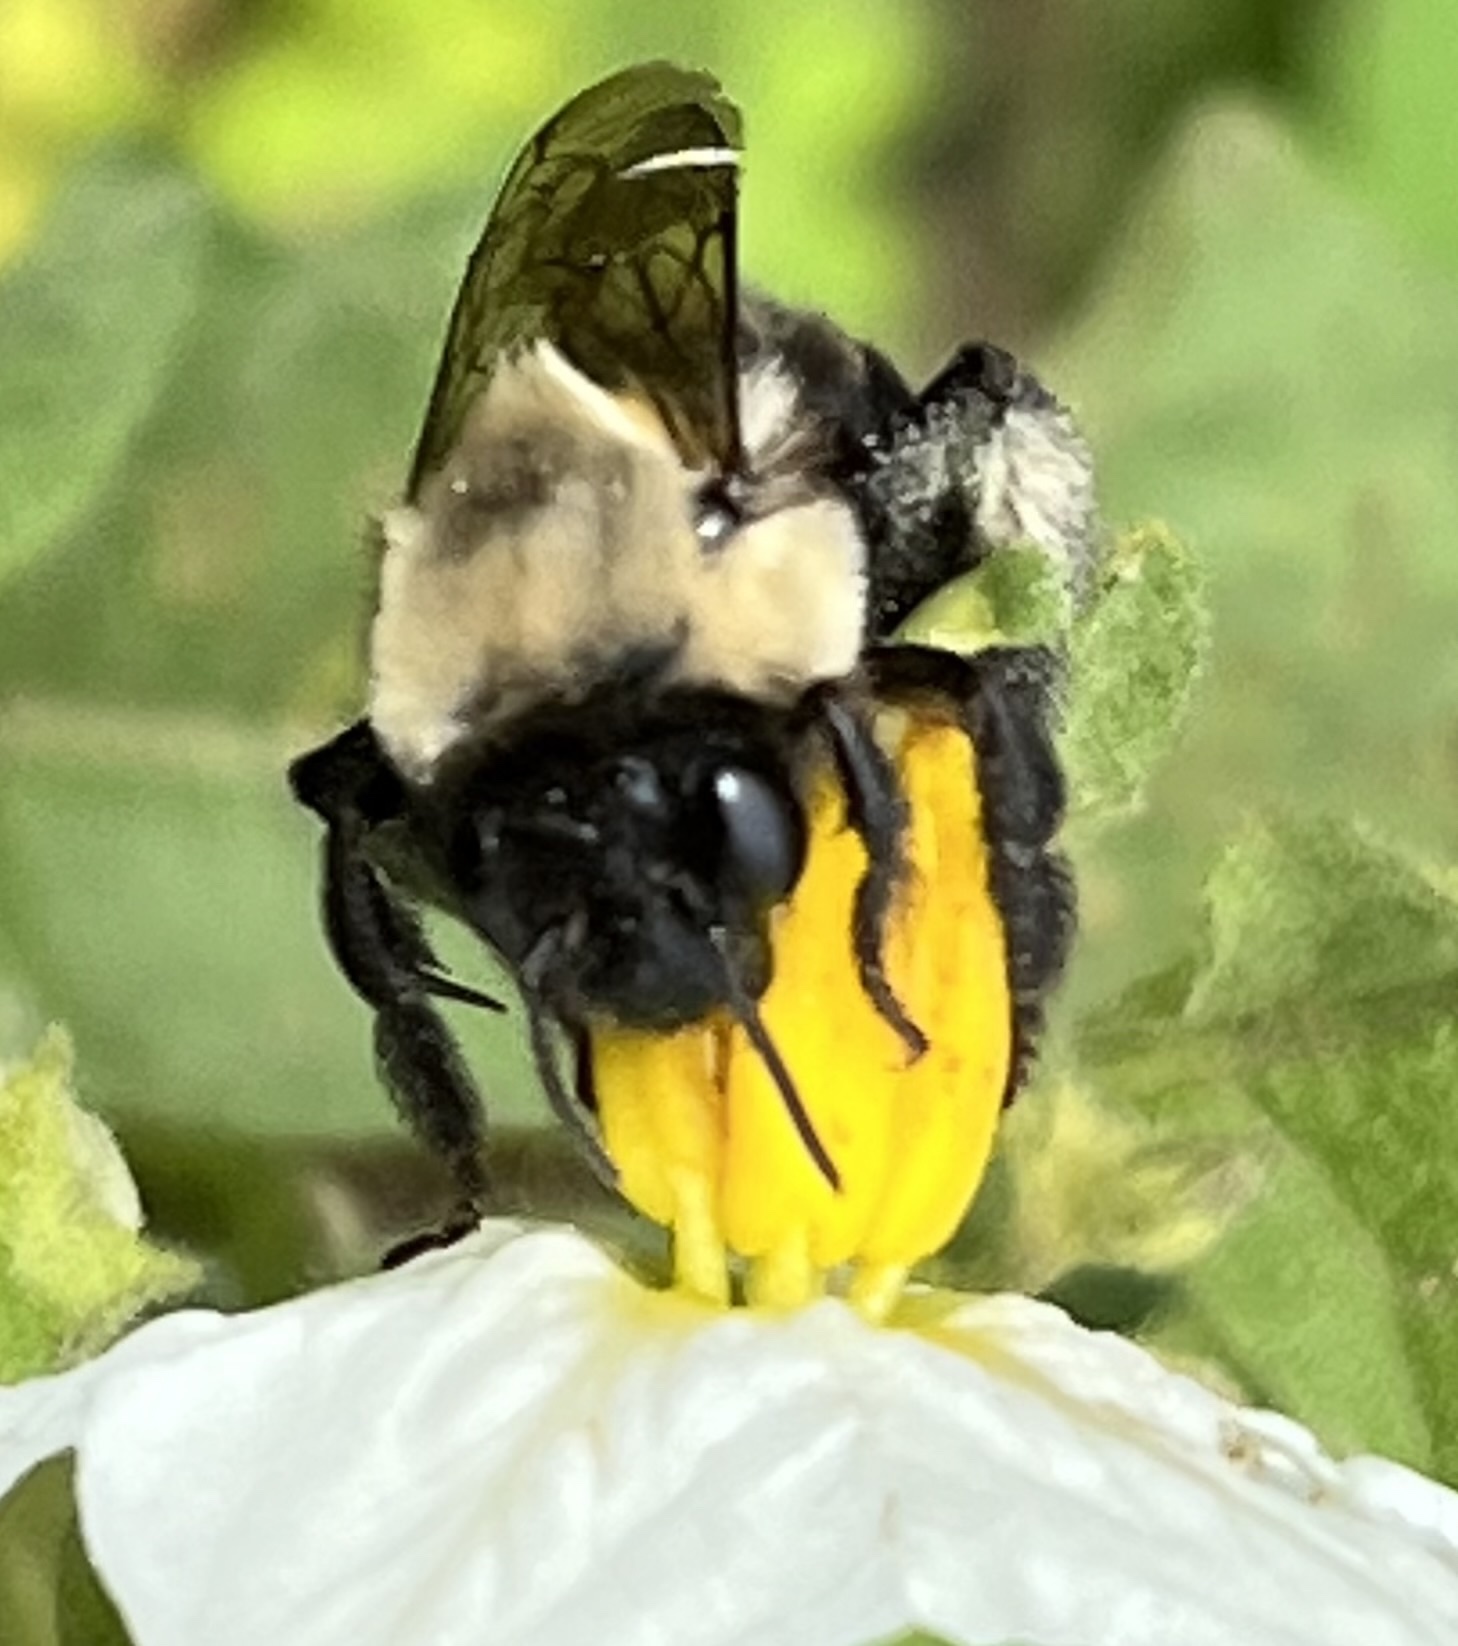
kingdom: Animalia
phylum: Arthropoda
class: Insecta
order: Hymenoptera
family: Apidae
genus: Anthophora
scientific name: Anthophora abrupta
